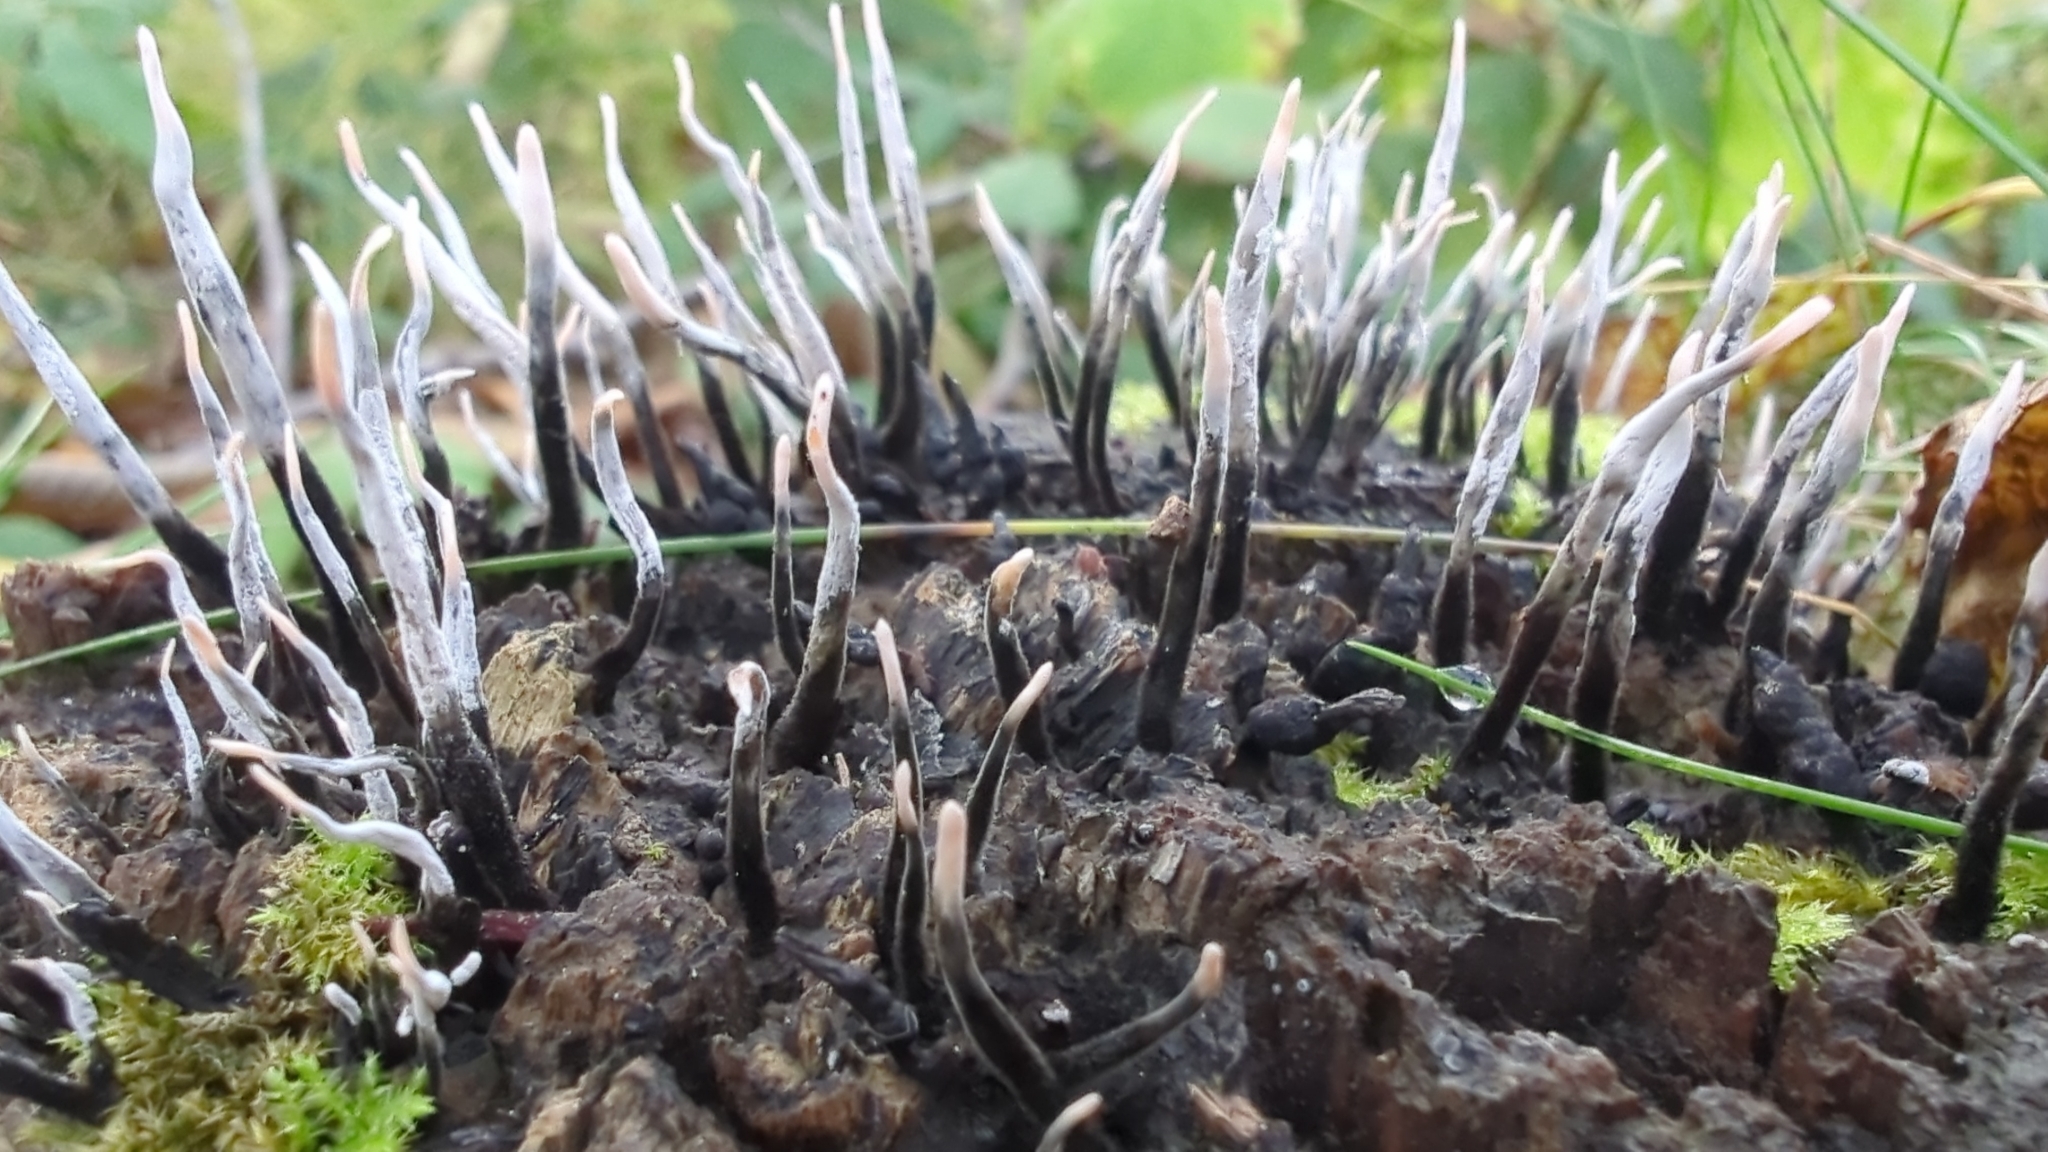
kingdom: Fungi
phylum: Ascomycota
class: Sordariomycetes
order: Xylariales
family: Xylariaceae
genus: Xylaria
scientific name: Xylaria hypoxylon
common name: Candle-snuff fungus
